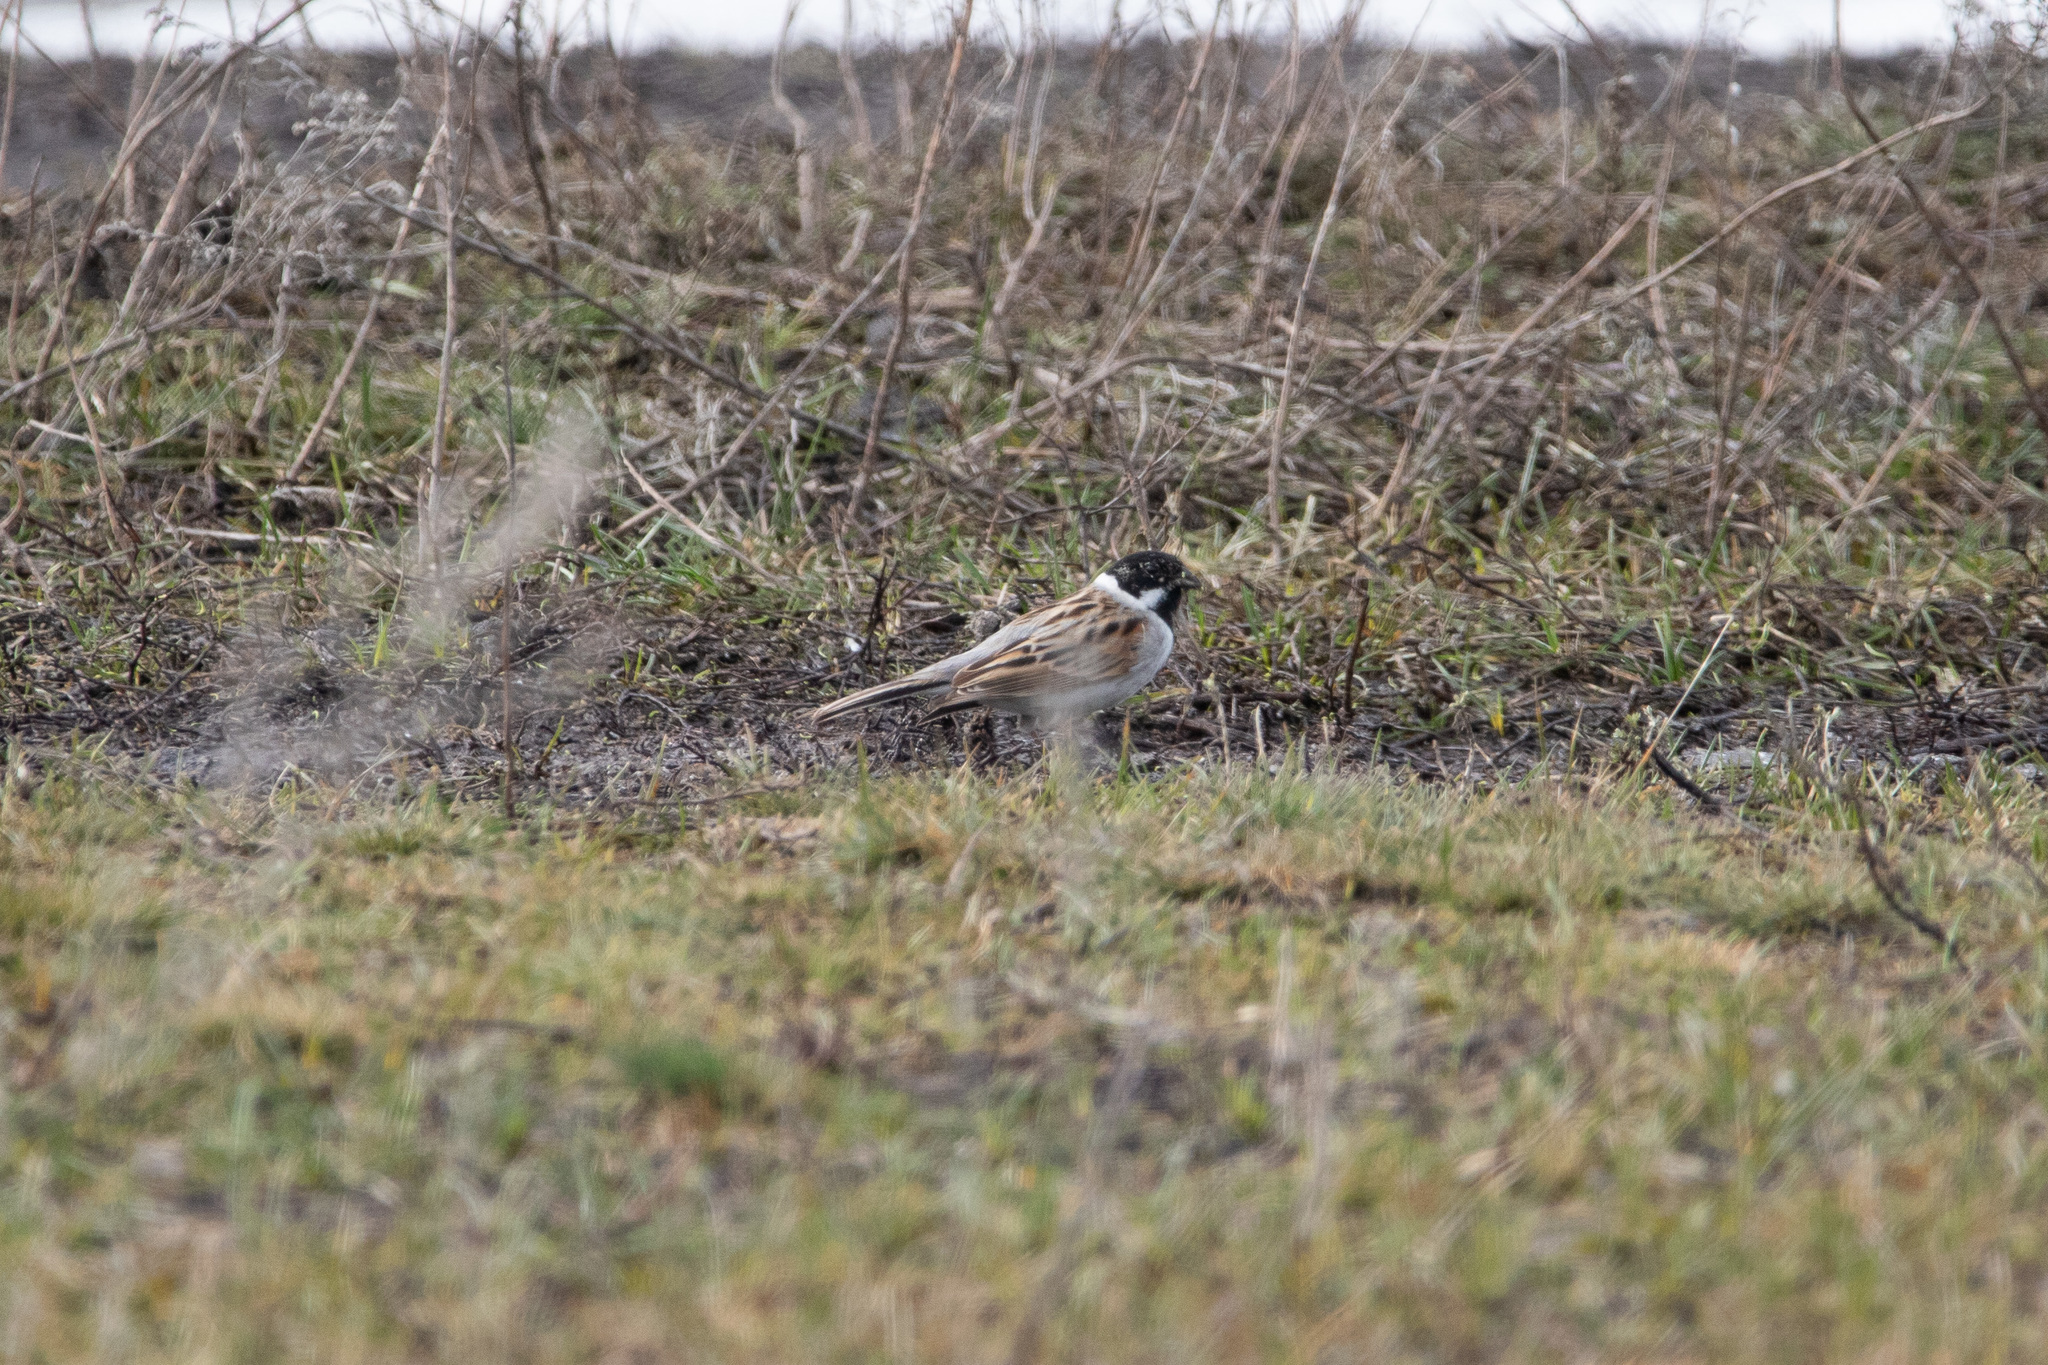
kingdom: Animalia
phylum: Chordata
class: Aves
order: Passeriformes
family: Emberizidae
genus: Emberiza
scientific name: Emberiza schoeniclus
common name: Reed bunting
